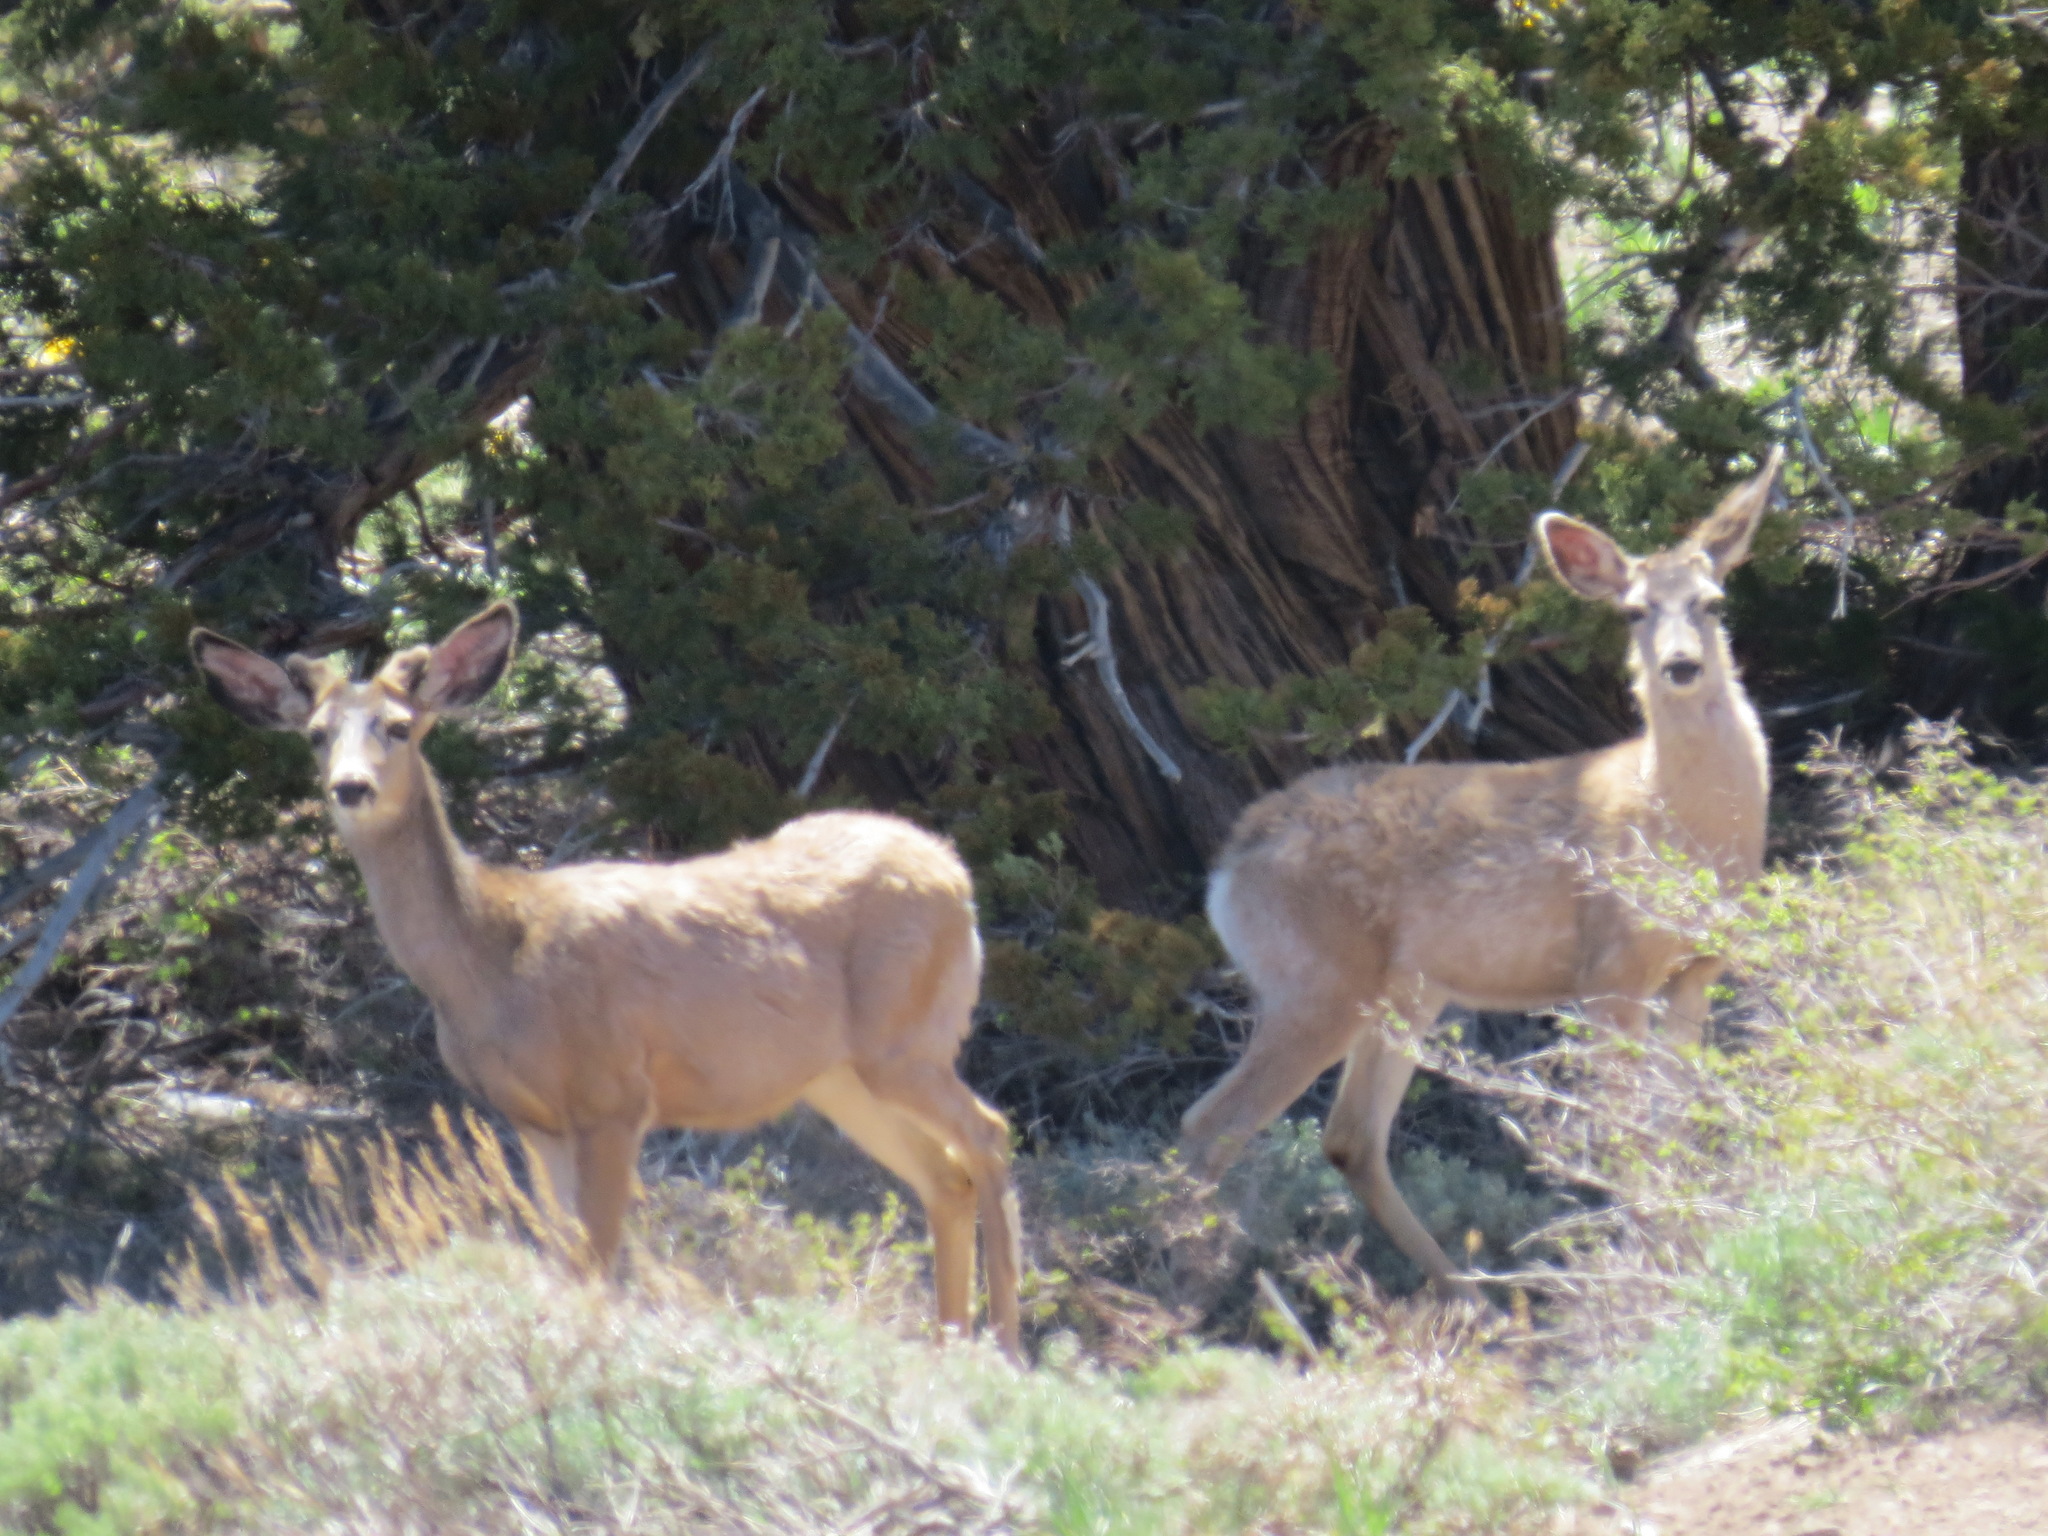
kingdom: Animalia
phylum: Chordata
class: Mammalia
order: Artiodactyla
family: Cervidae
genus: Odocoileus
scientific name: Odocoileus hemionus
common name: Mule deer
